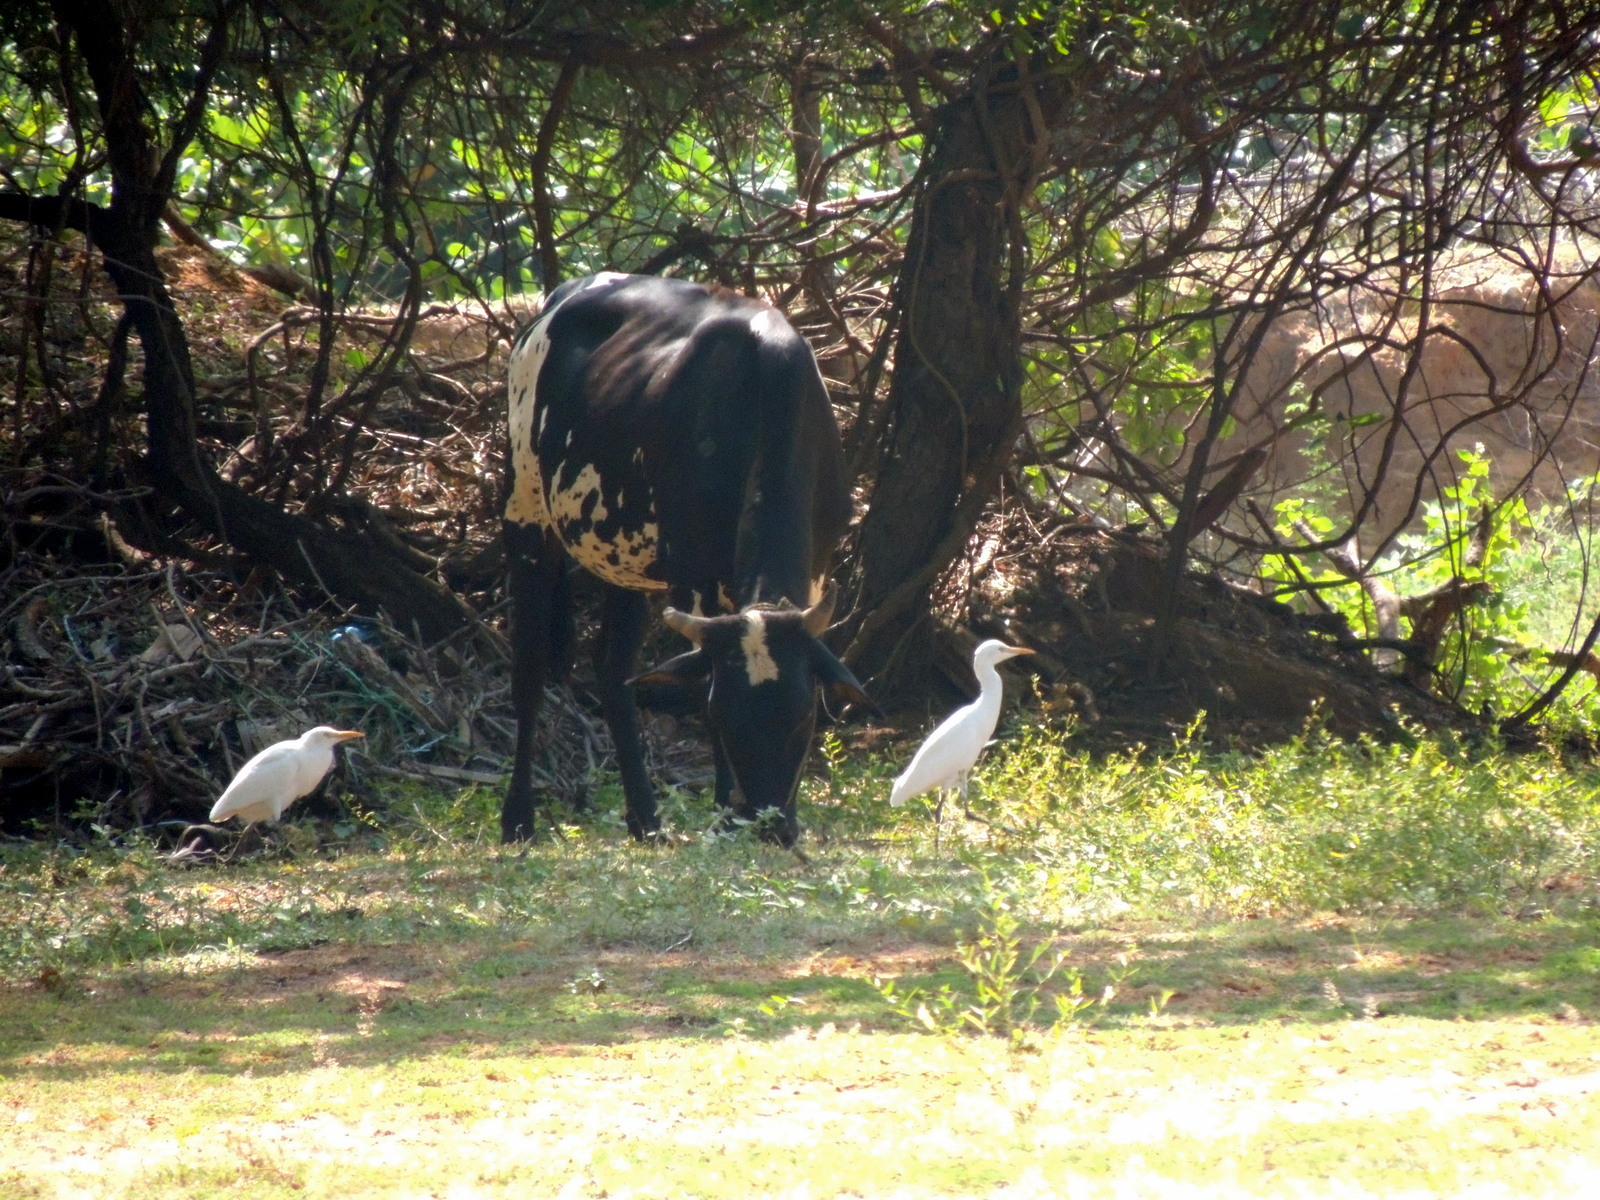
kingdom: Animalia
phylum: Chordata
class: Aves
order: Pelecaniformes
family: Ardeidae
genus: Bubulcus
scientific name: Bubulcus coromandus
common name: Eastern cattle egret
